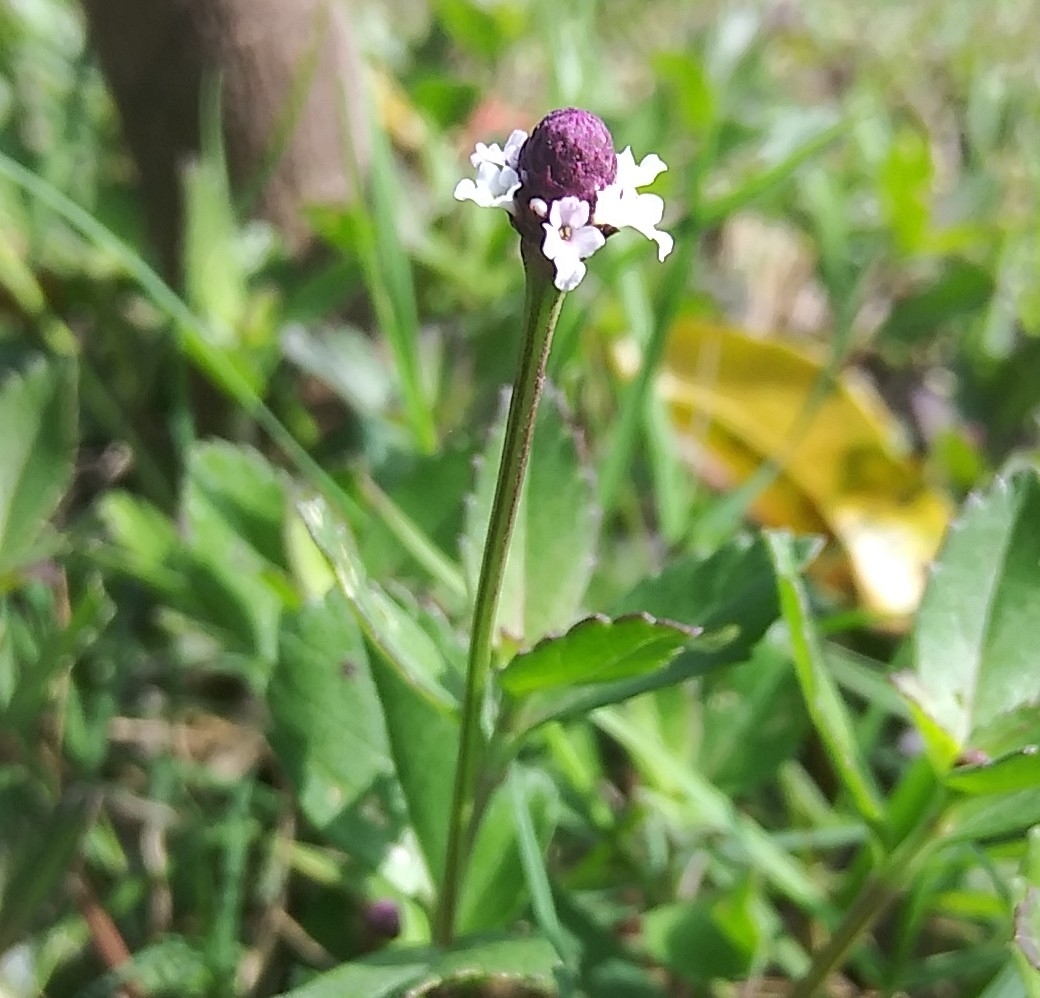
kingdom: Plantae
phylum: Tracheophyta
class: Magnoliopsida
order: Lamiales
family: Verbenaceae
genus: Phyla
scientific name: Phyla nodiflora
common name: Frogfruit
